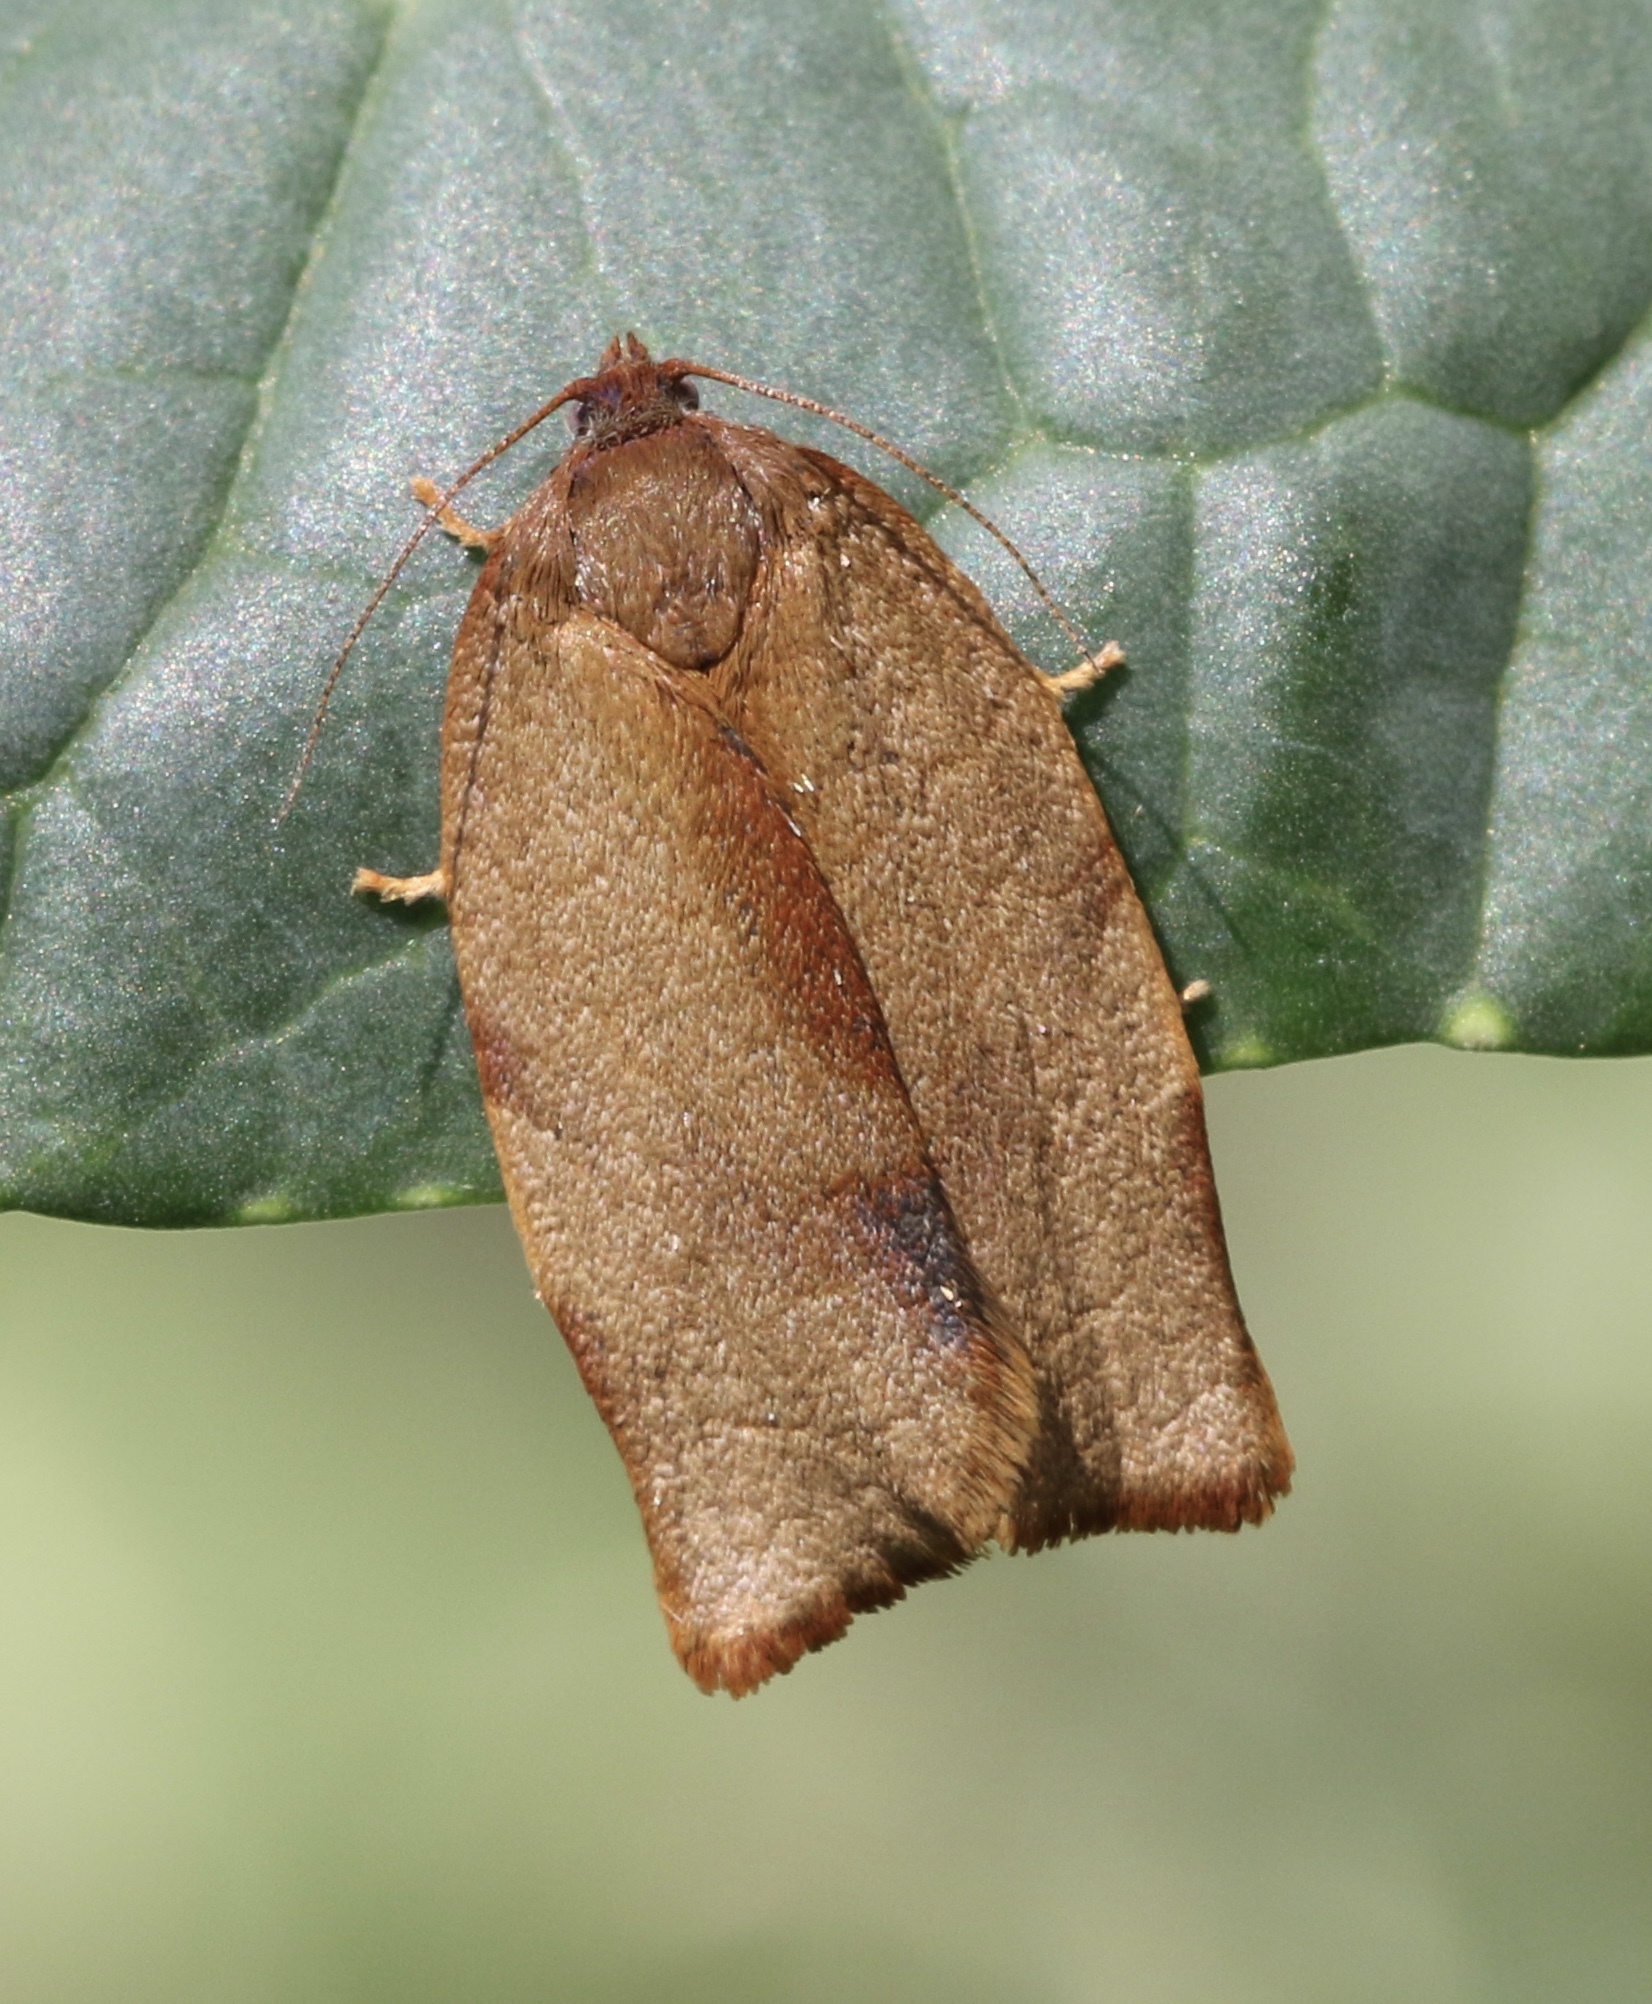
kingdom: Animalia
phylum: Arthropoda
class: Insecta
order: Lepidoptera
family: Tortricidae
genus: Cacoecimorpha
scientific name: Cacoecimorpha pronubana
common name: Carnation tortrix
